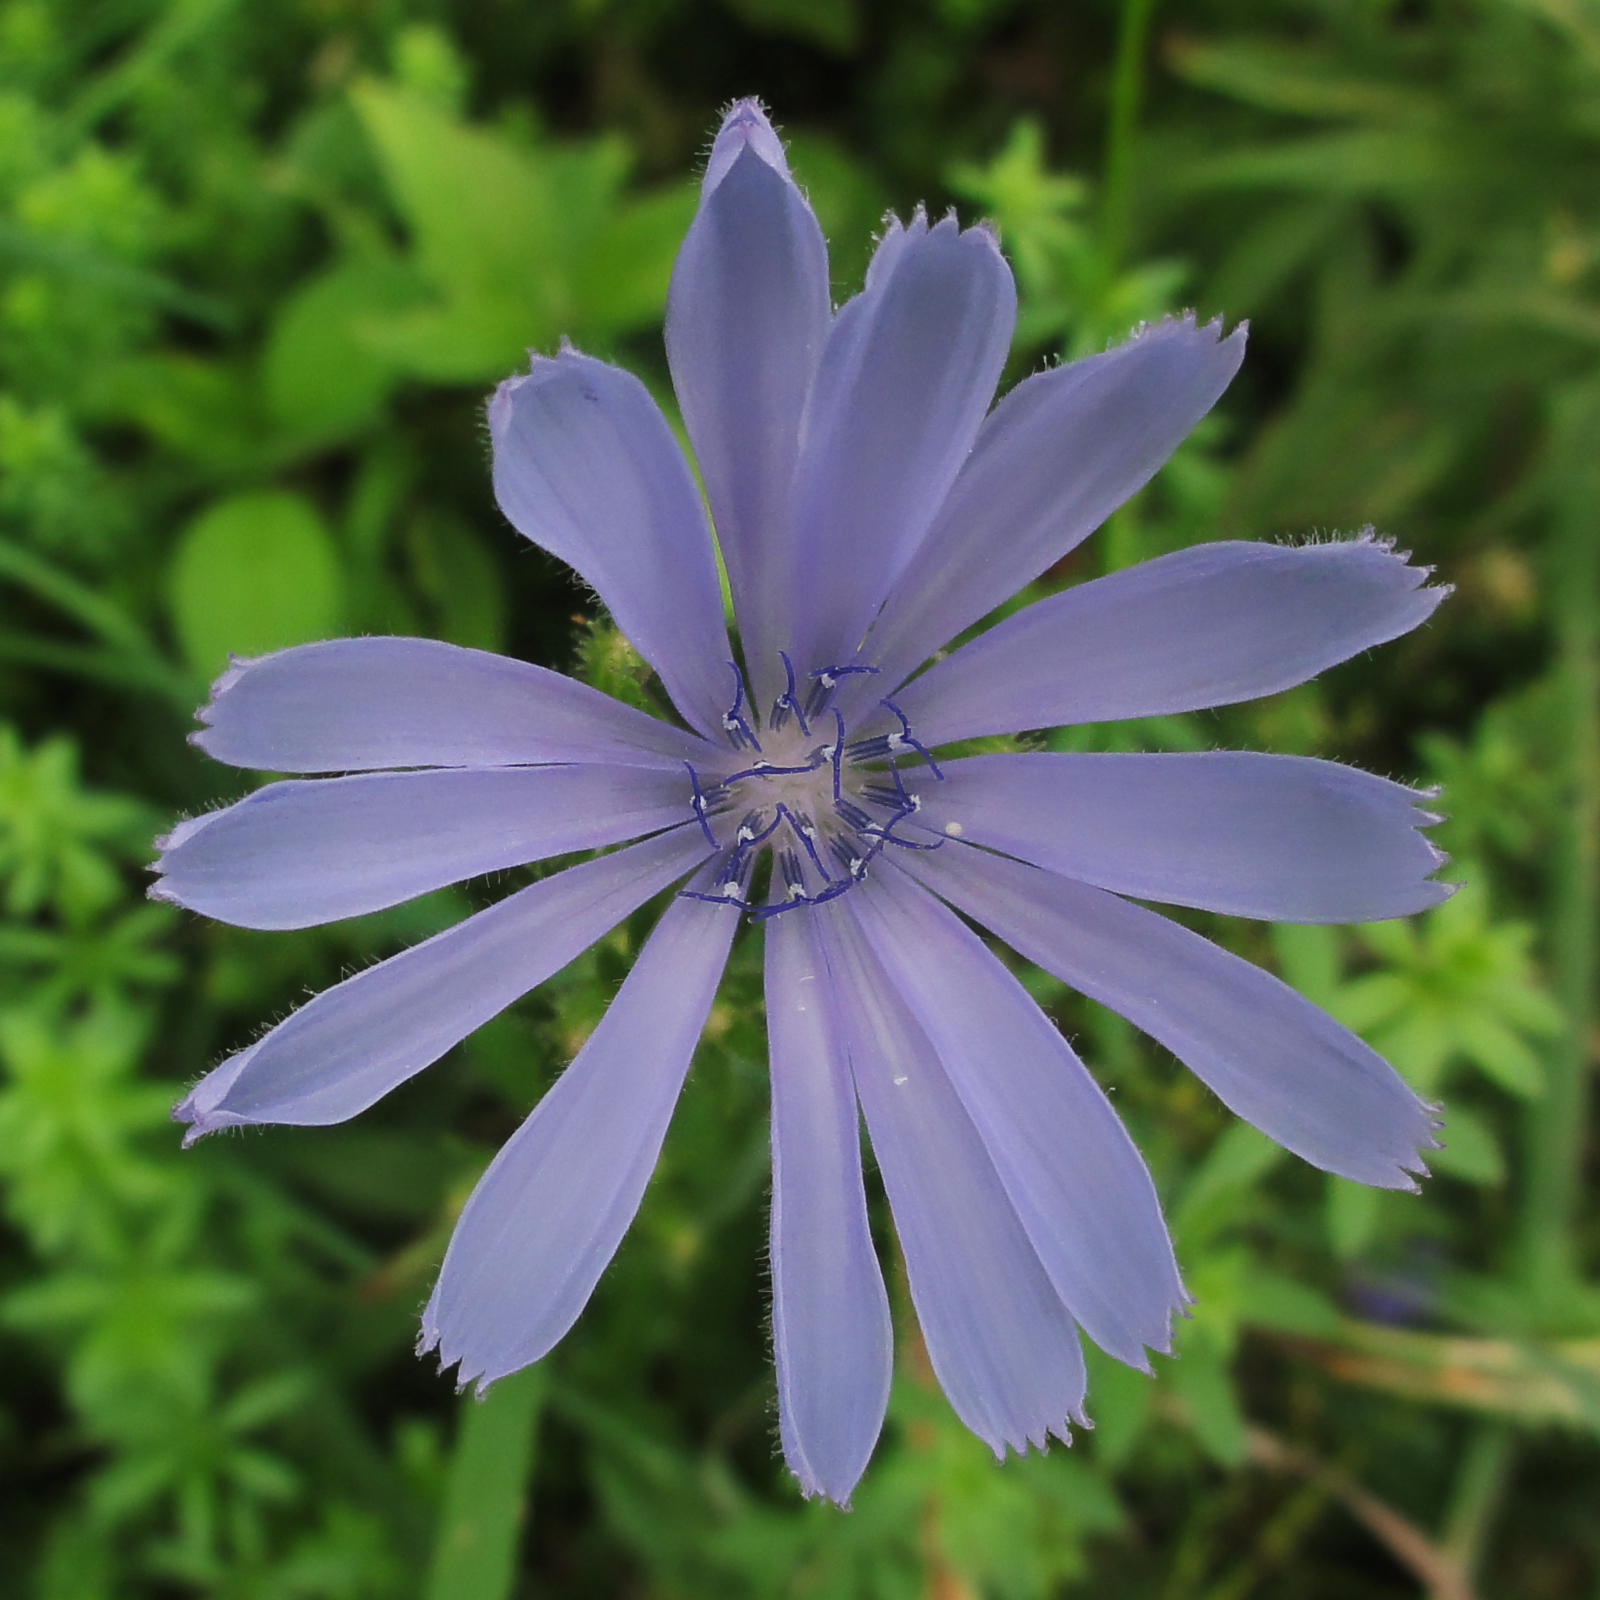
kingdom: Plantae
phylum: Tracheophyta
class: Magnoliopsida
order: Asterales
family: Asteraceae
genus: Cichorium
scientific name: Cichorium intybus
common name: Chicory
